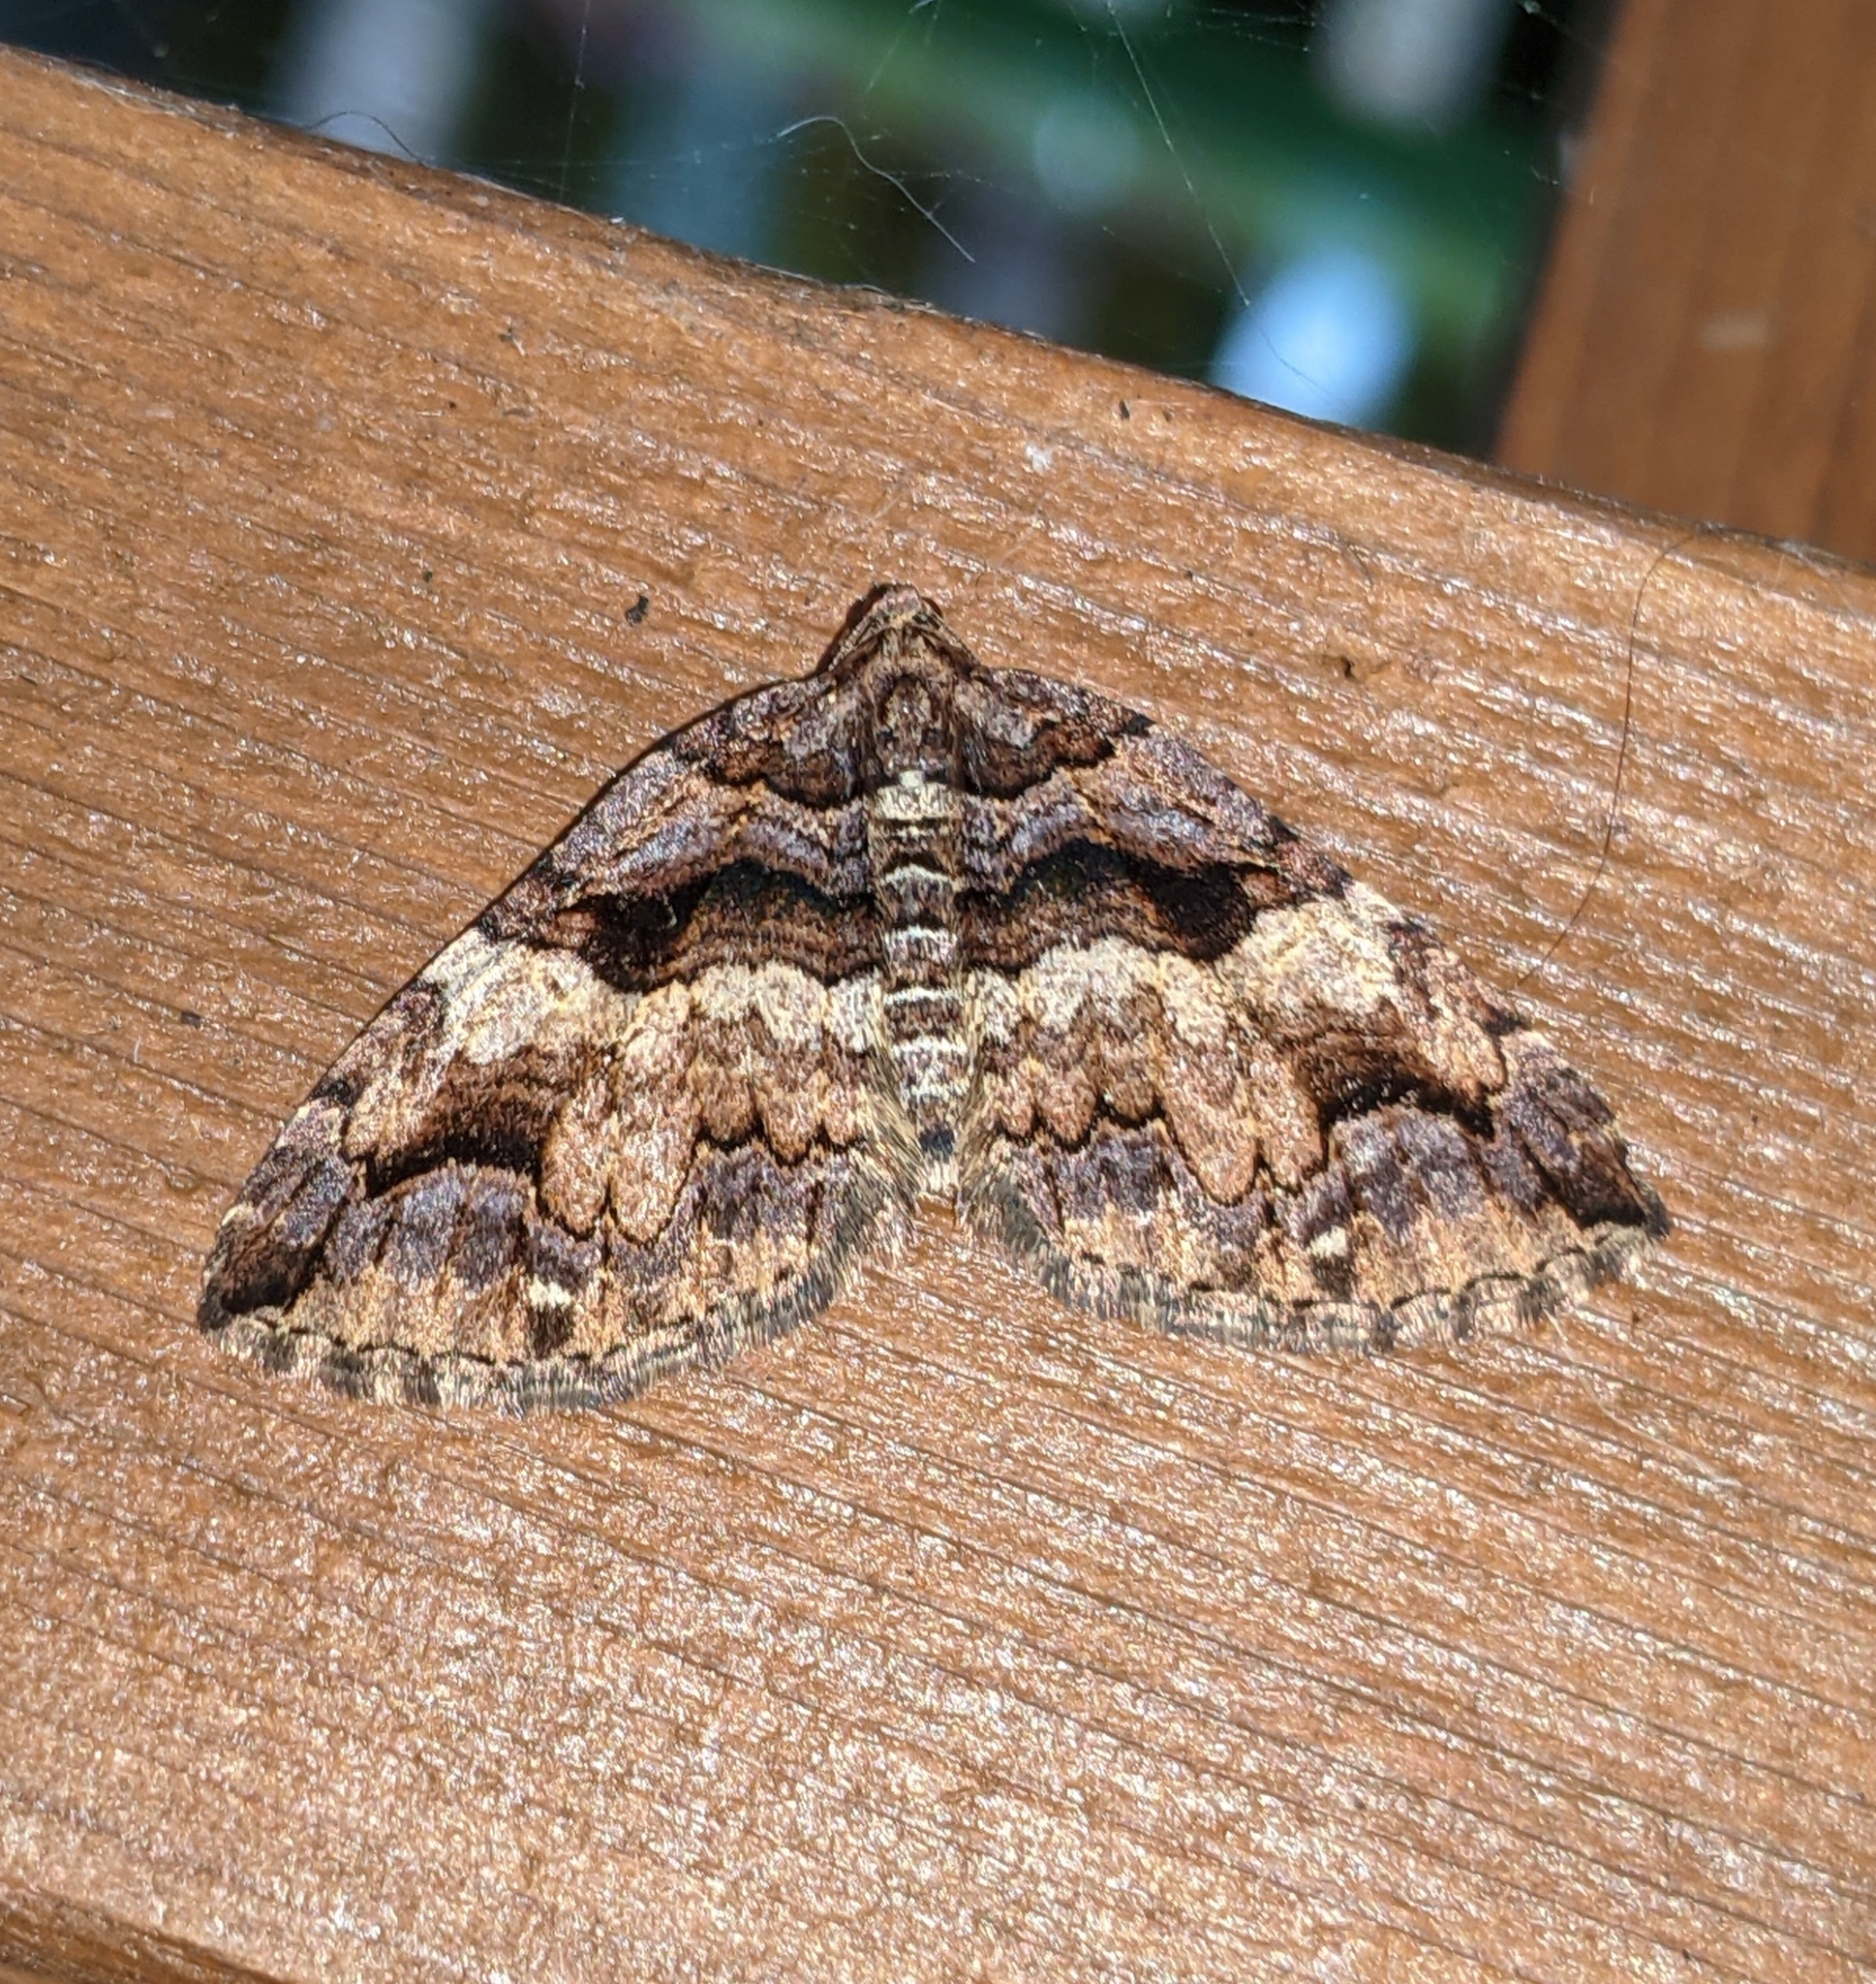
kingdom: Animalia
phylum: Arthropoda
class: Insecta
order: Lepidoptera
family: Geometridae
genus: Anticlea
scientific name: Anticlea vasiliata
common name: Variable carpet
